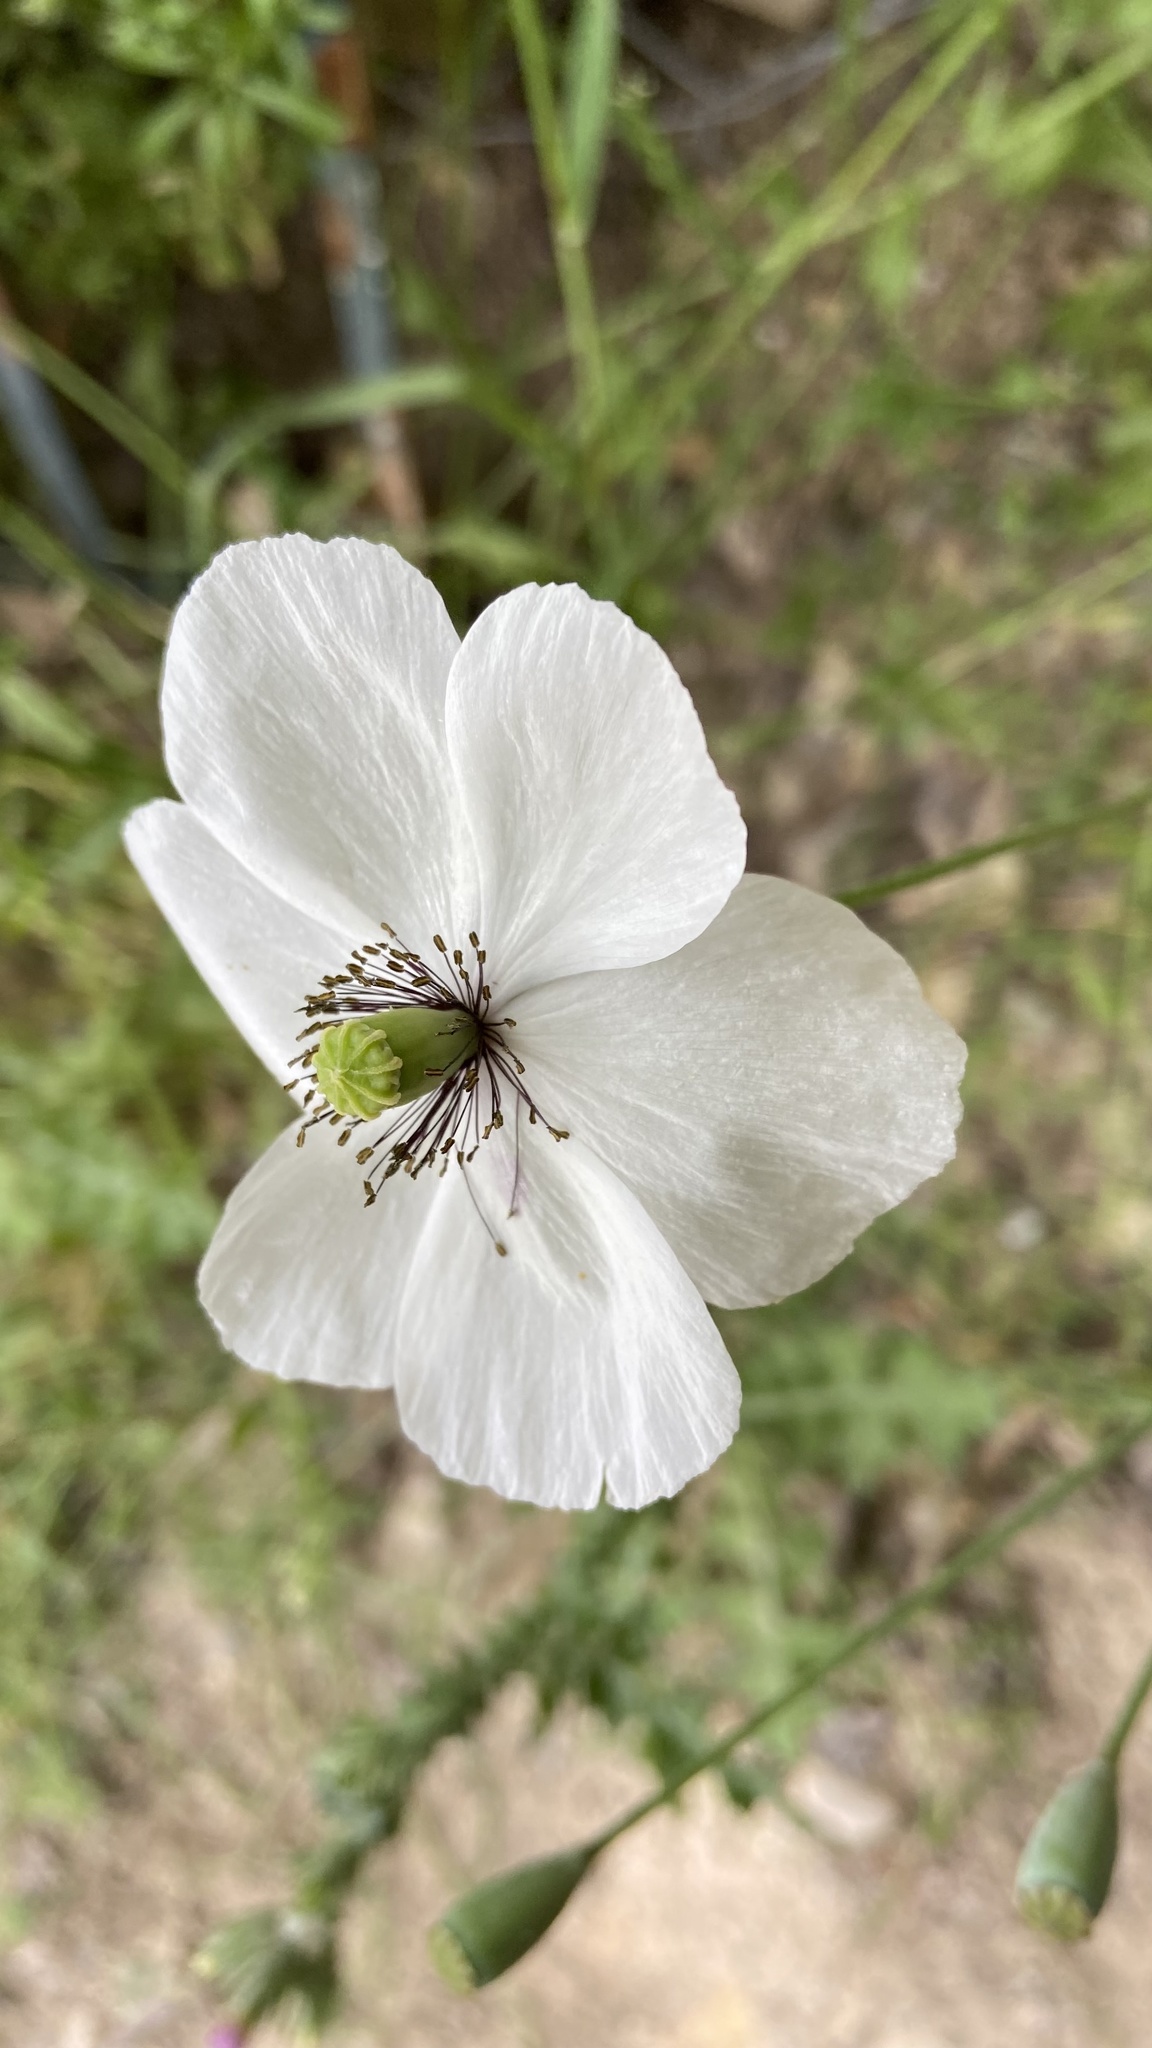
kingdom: Plantae
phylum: Tracheophyta
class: Magnoliopsida
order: Ranunculales
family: Papaveraceae
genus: Papaver
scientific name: Papaver dubium
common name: Long-headed poppy
